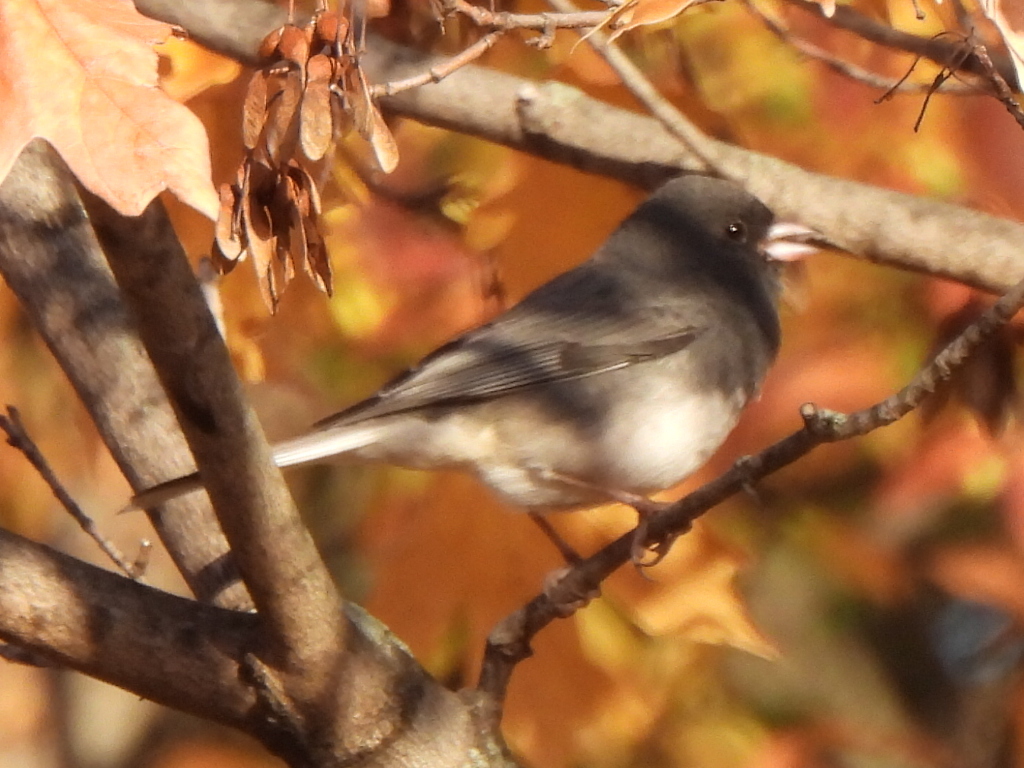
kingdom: Animalia
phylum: Chordata
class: Aves
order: Passeriformes
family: Passerellidae
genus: Junco
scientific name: Junco hyemalis
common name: Dark-eyed junco
